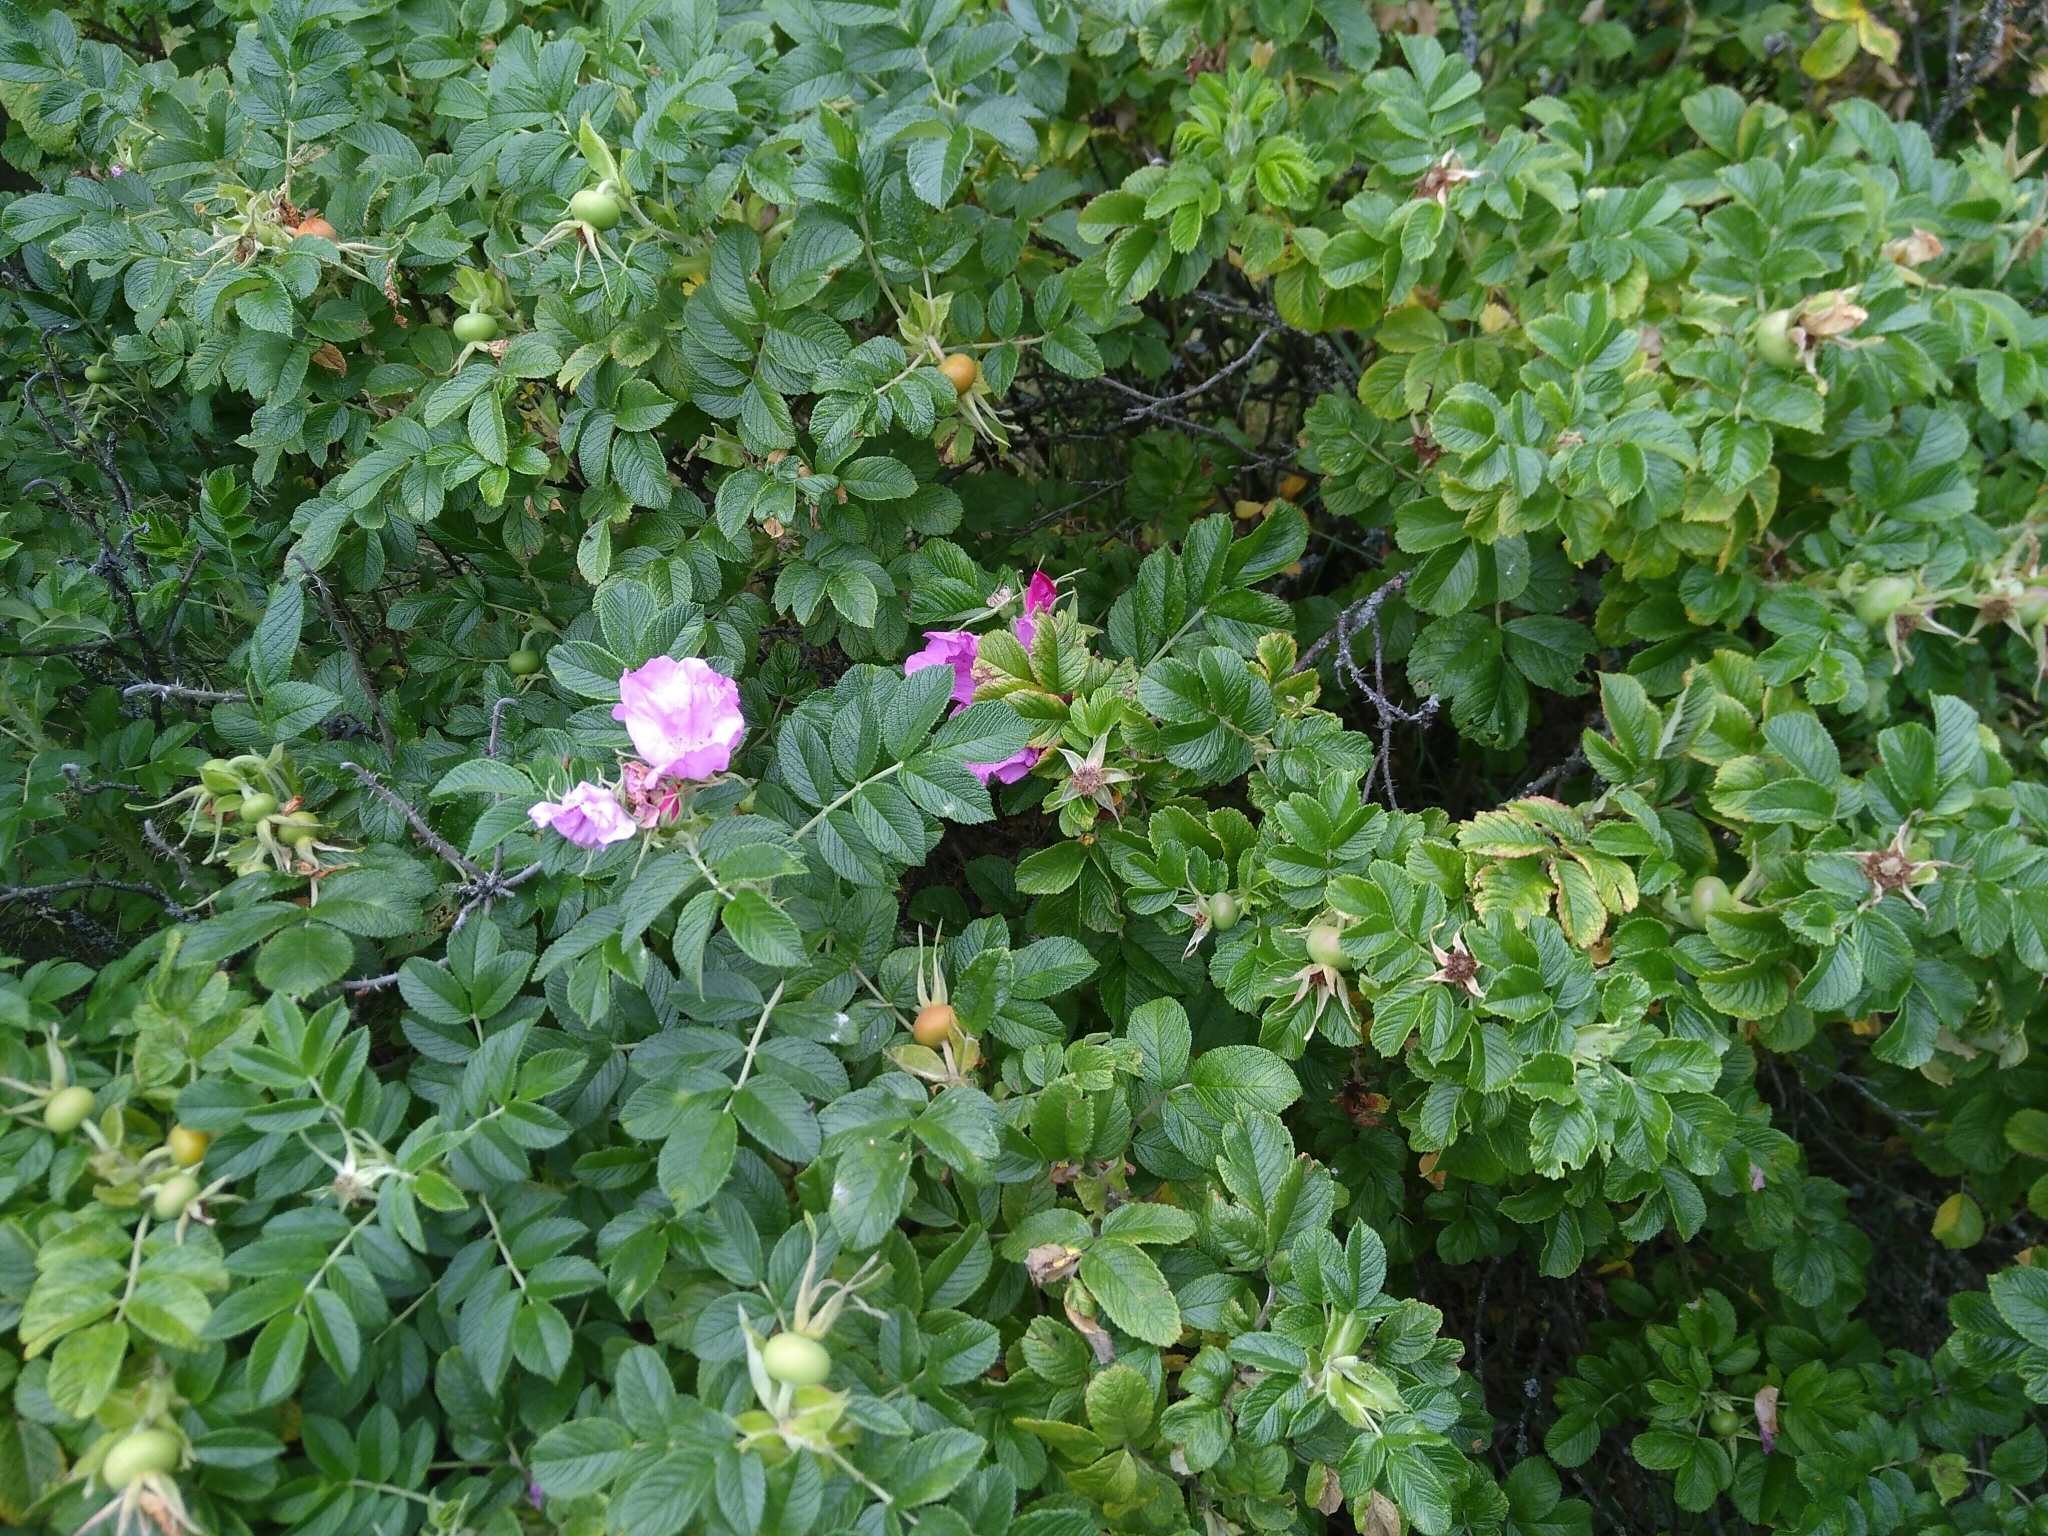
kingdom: Plantae
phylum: Tracheophyta
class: Magnoliopsida
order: Rosales
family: Rosaceae
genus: Rosa
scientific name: Rosa rugosa
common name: Japanese rose
